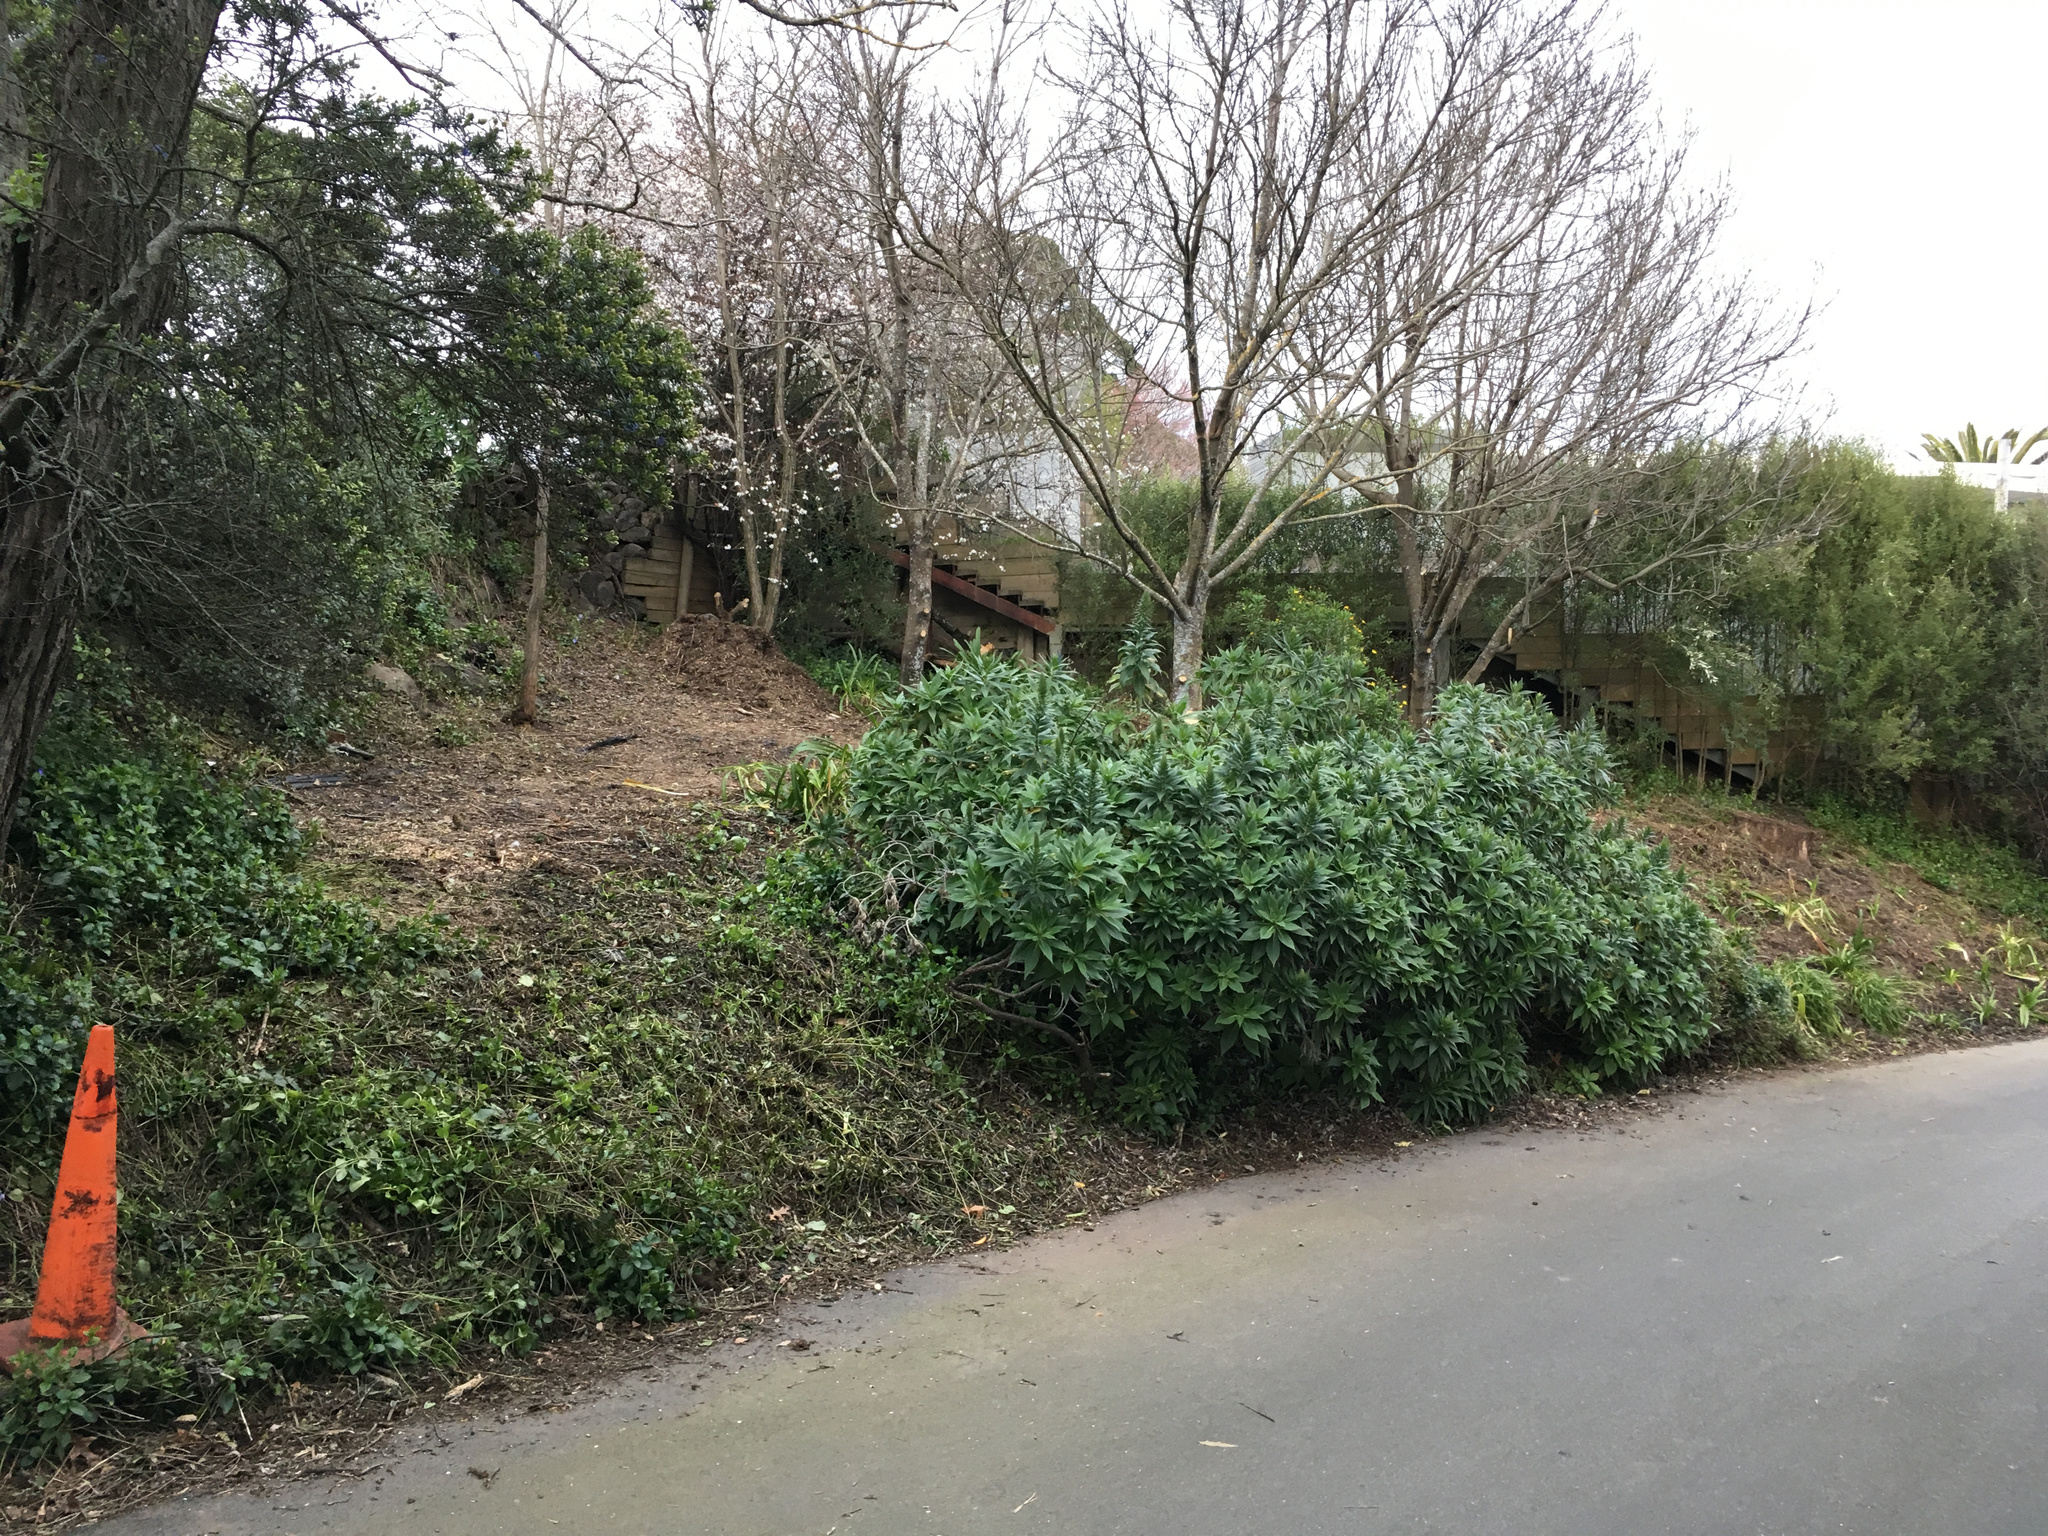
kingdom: Plantae
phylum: Tracheophyta
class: Magnoliopsida
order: Boraginales
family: Boraginaceae
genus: Echium
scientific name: Echium candicans
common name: Pride of madeira
